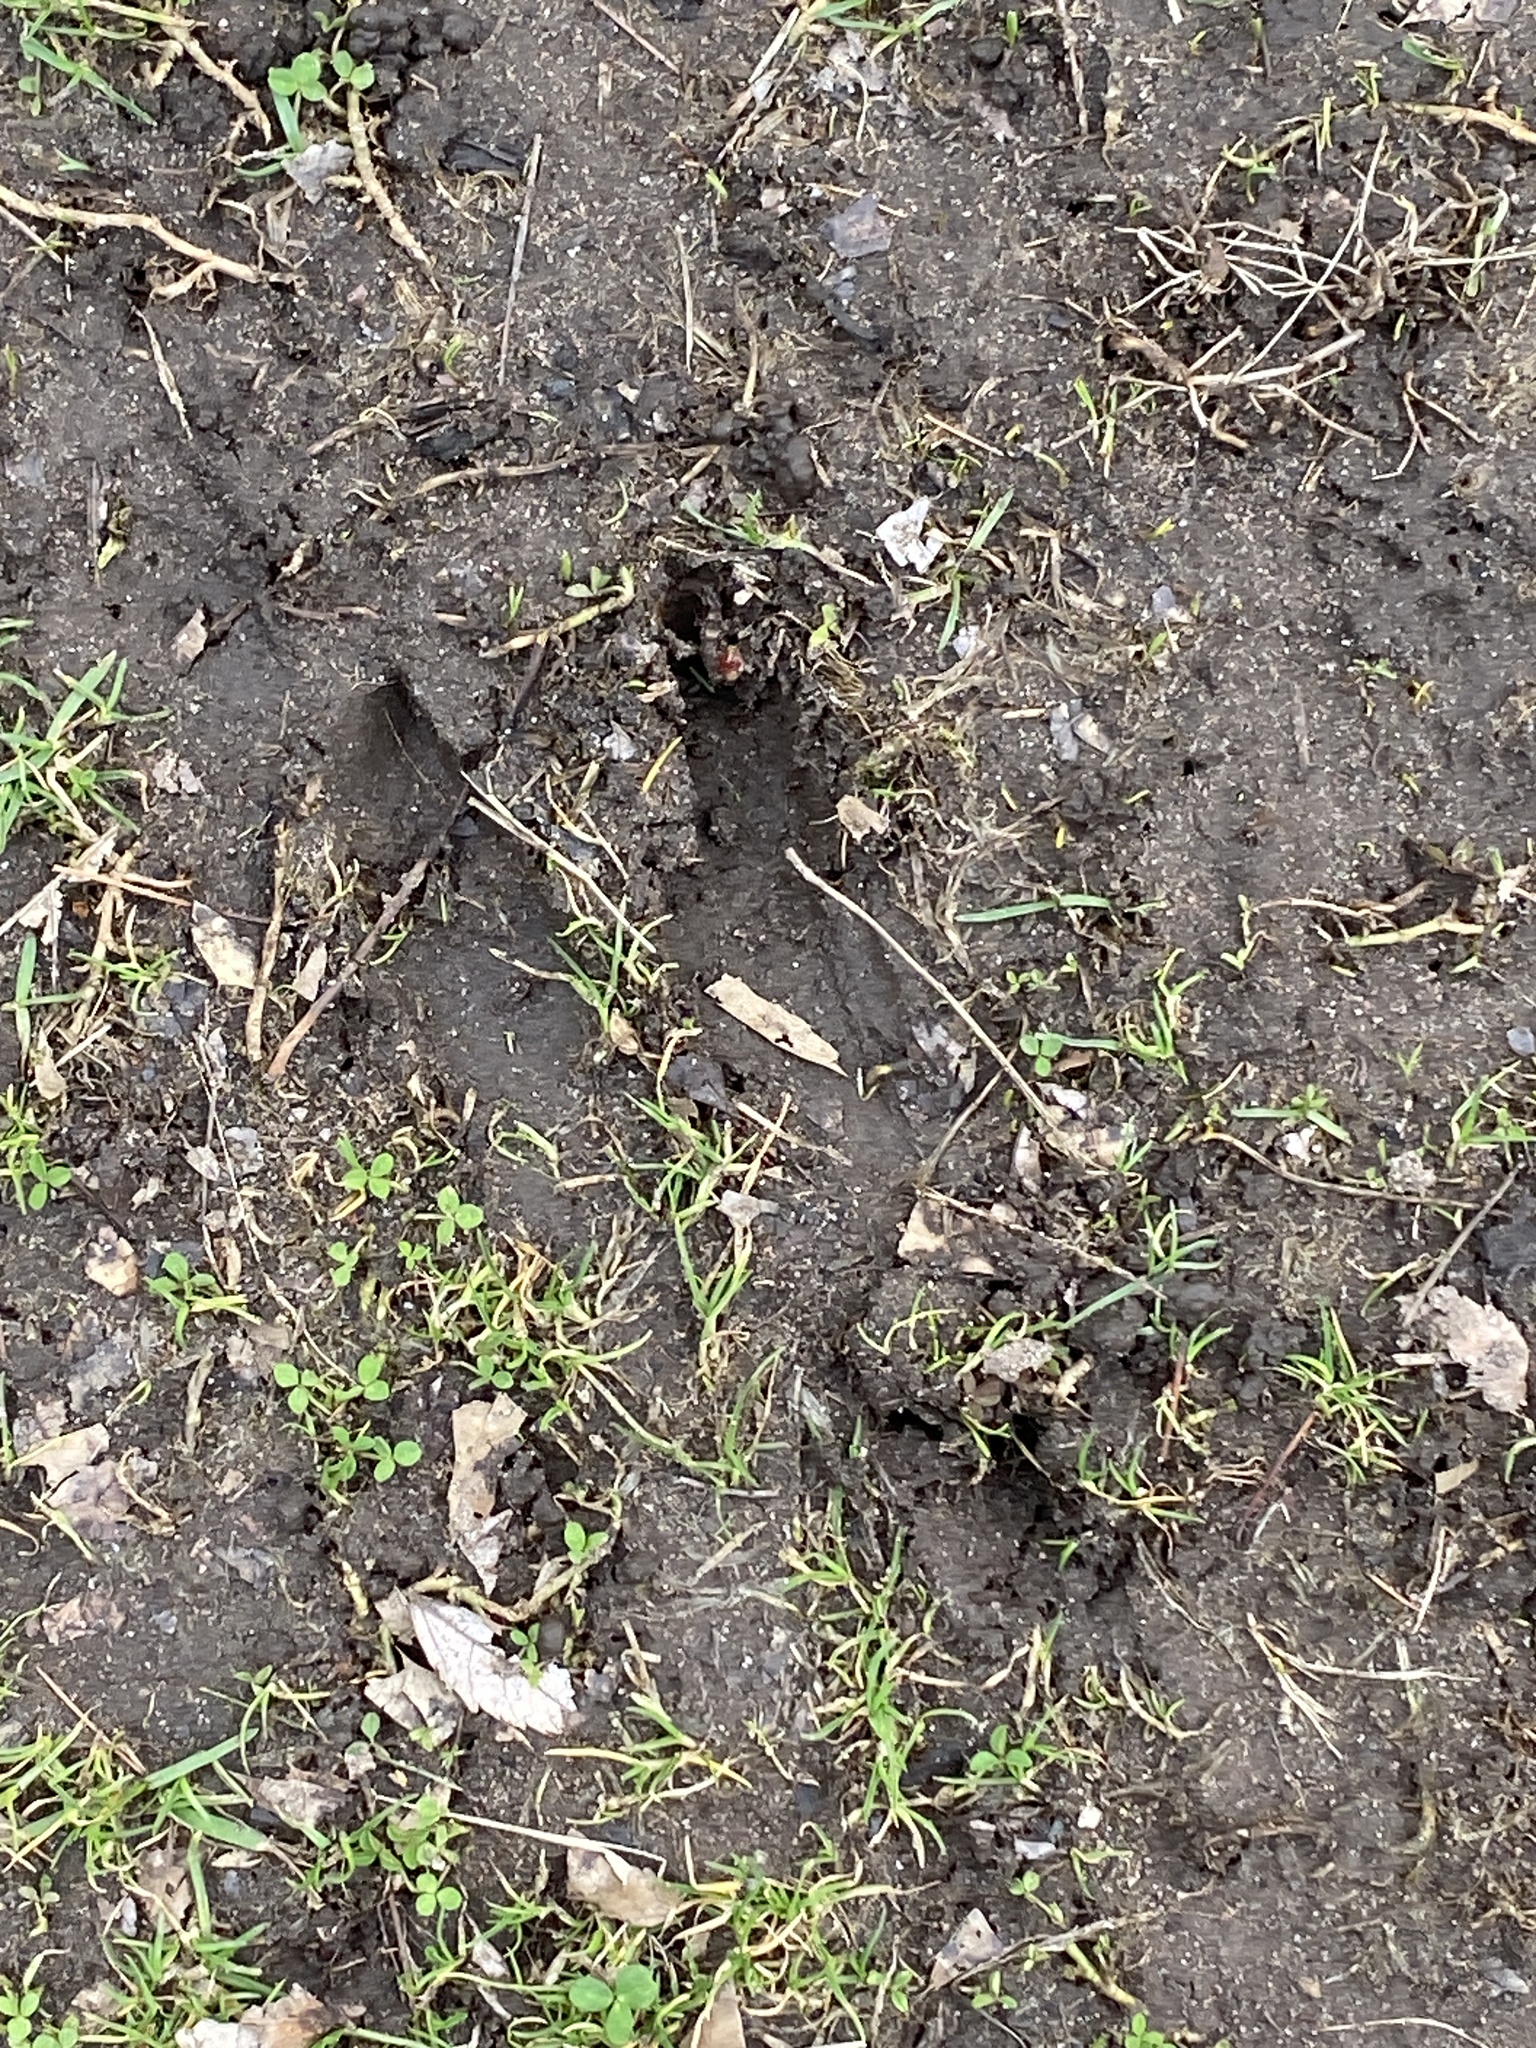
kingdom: Animalia
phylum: Chordata
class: Mammalia
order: Artiodactyla
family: Cervidae
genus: Odocoileus
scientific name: Odocoileus virginianus
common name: White-tailed deer
